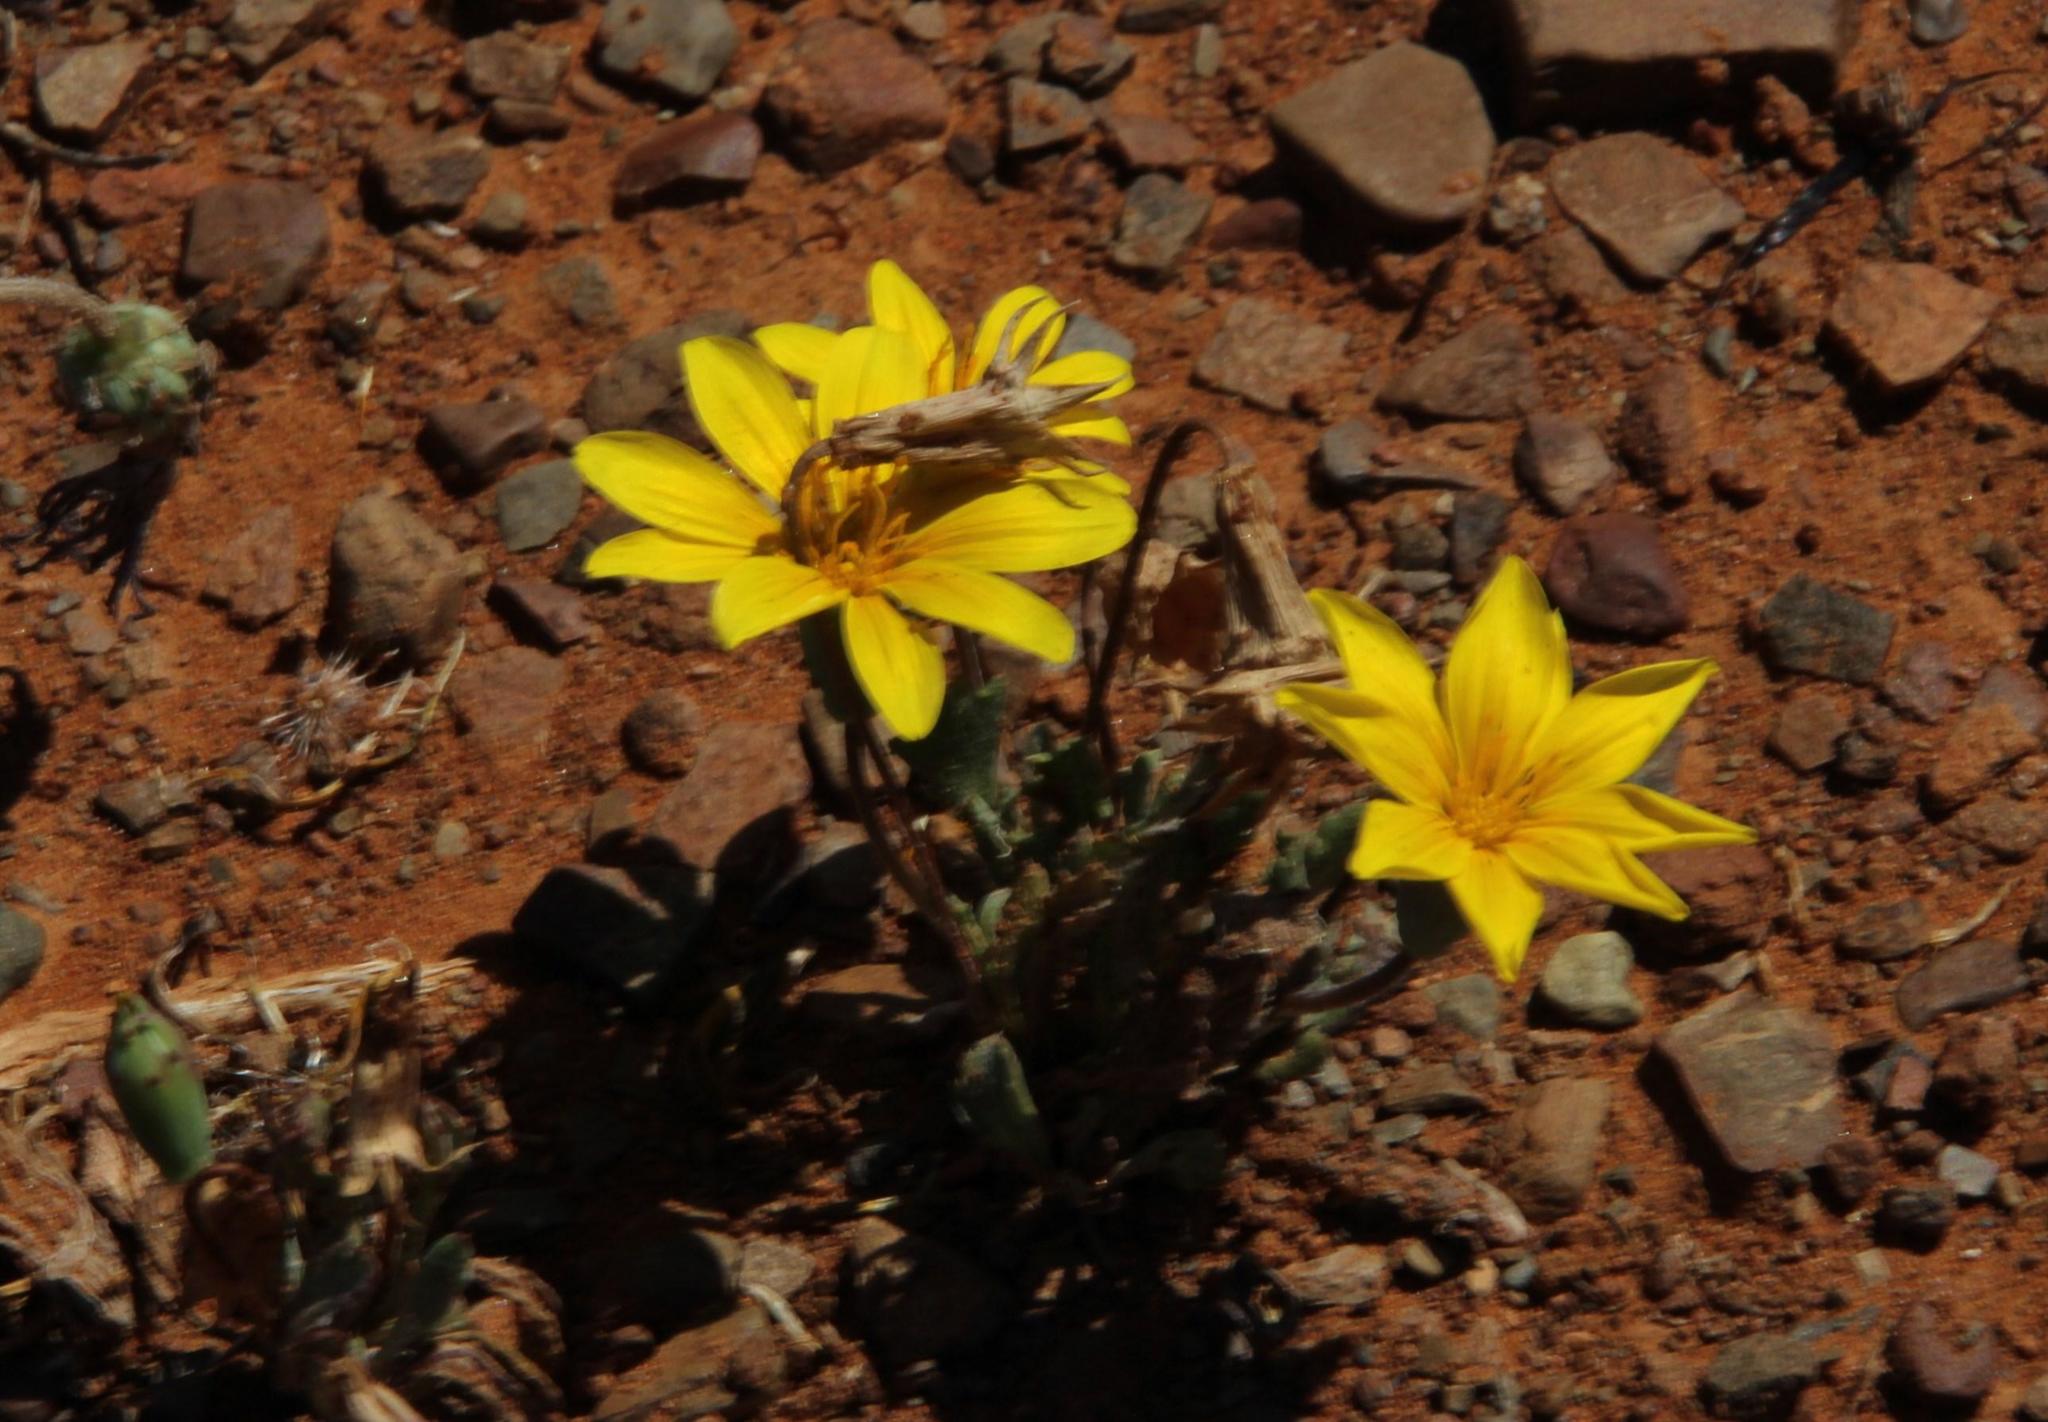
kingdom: Plantae
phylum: Tracheophyta
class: Magnoliopsida
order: Asterales
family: Asteraceae
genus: Gazania
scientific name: Gazania lichtensteinii
